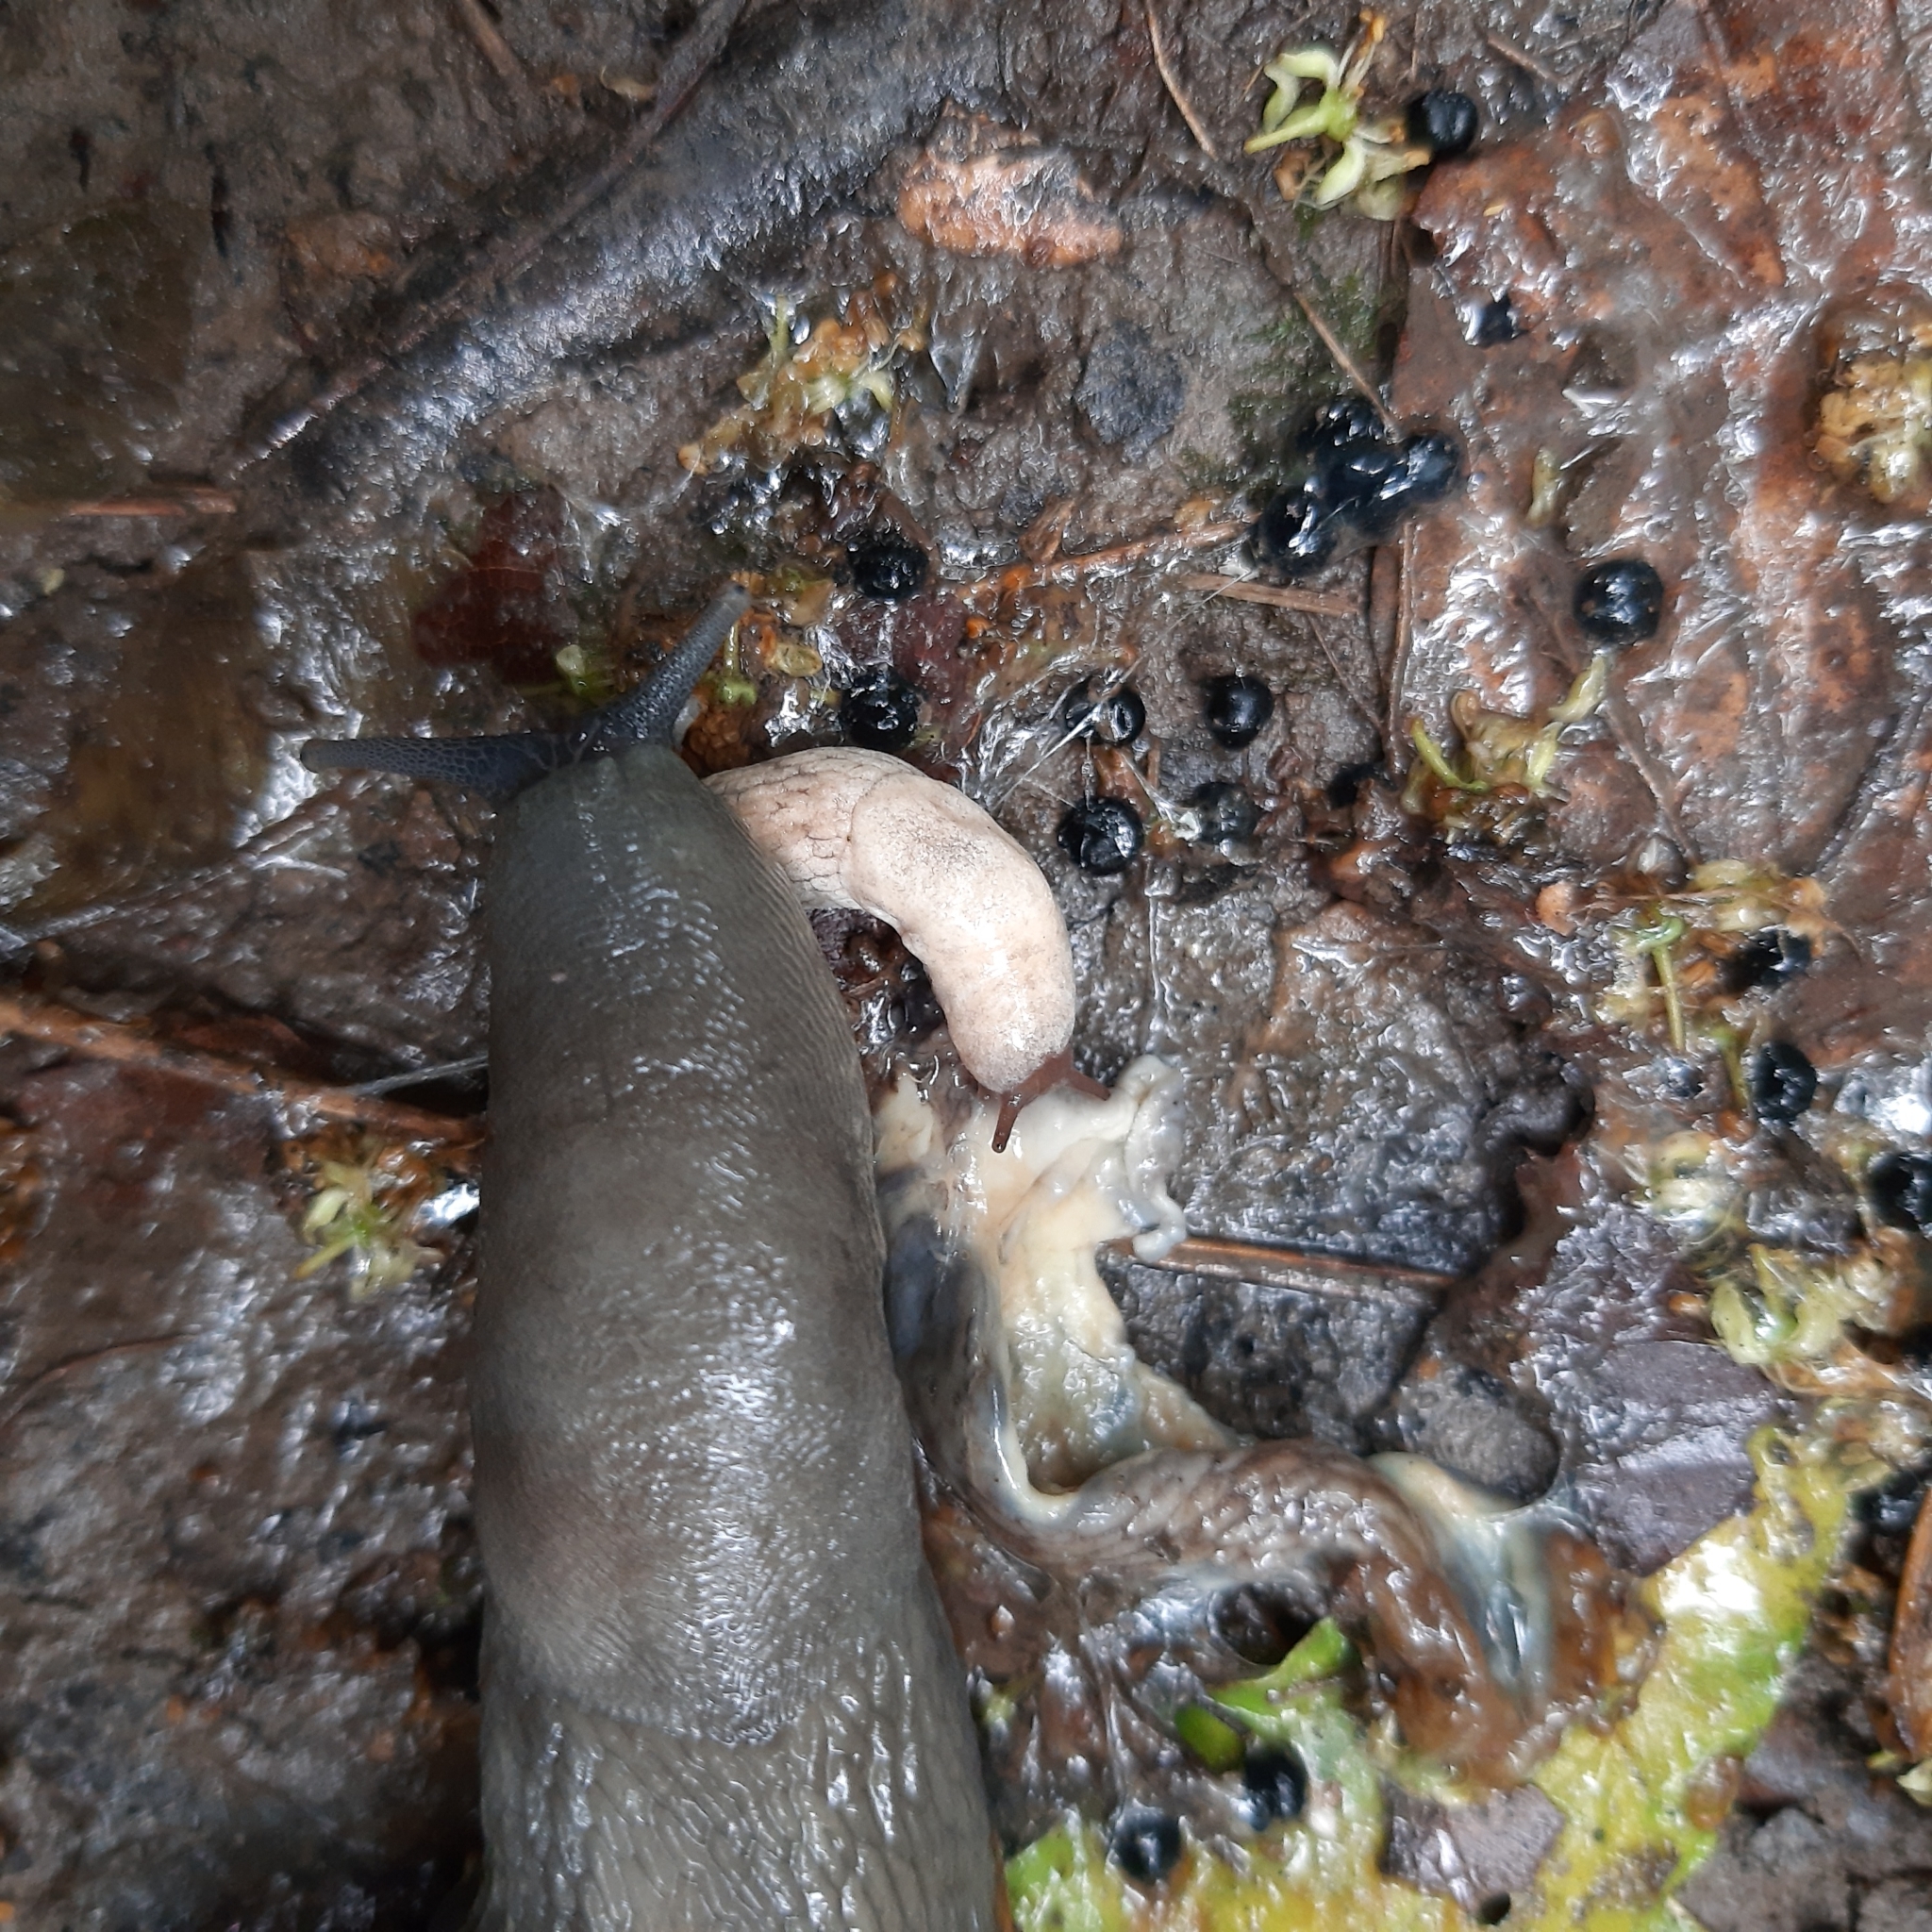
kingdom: Animalia
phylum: Mollusca
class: Gastropoda
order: Stylommatophora
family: Limacidae
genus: Limax
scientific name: Limax cinereoniger
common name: Ash-black slug
